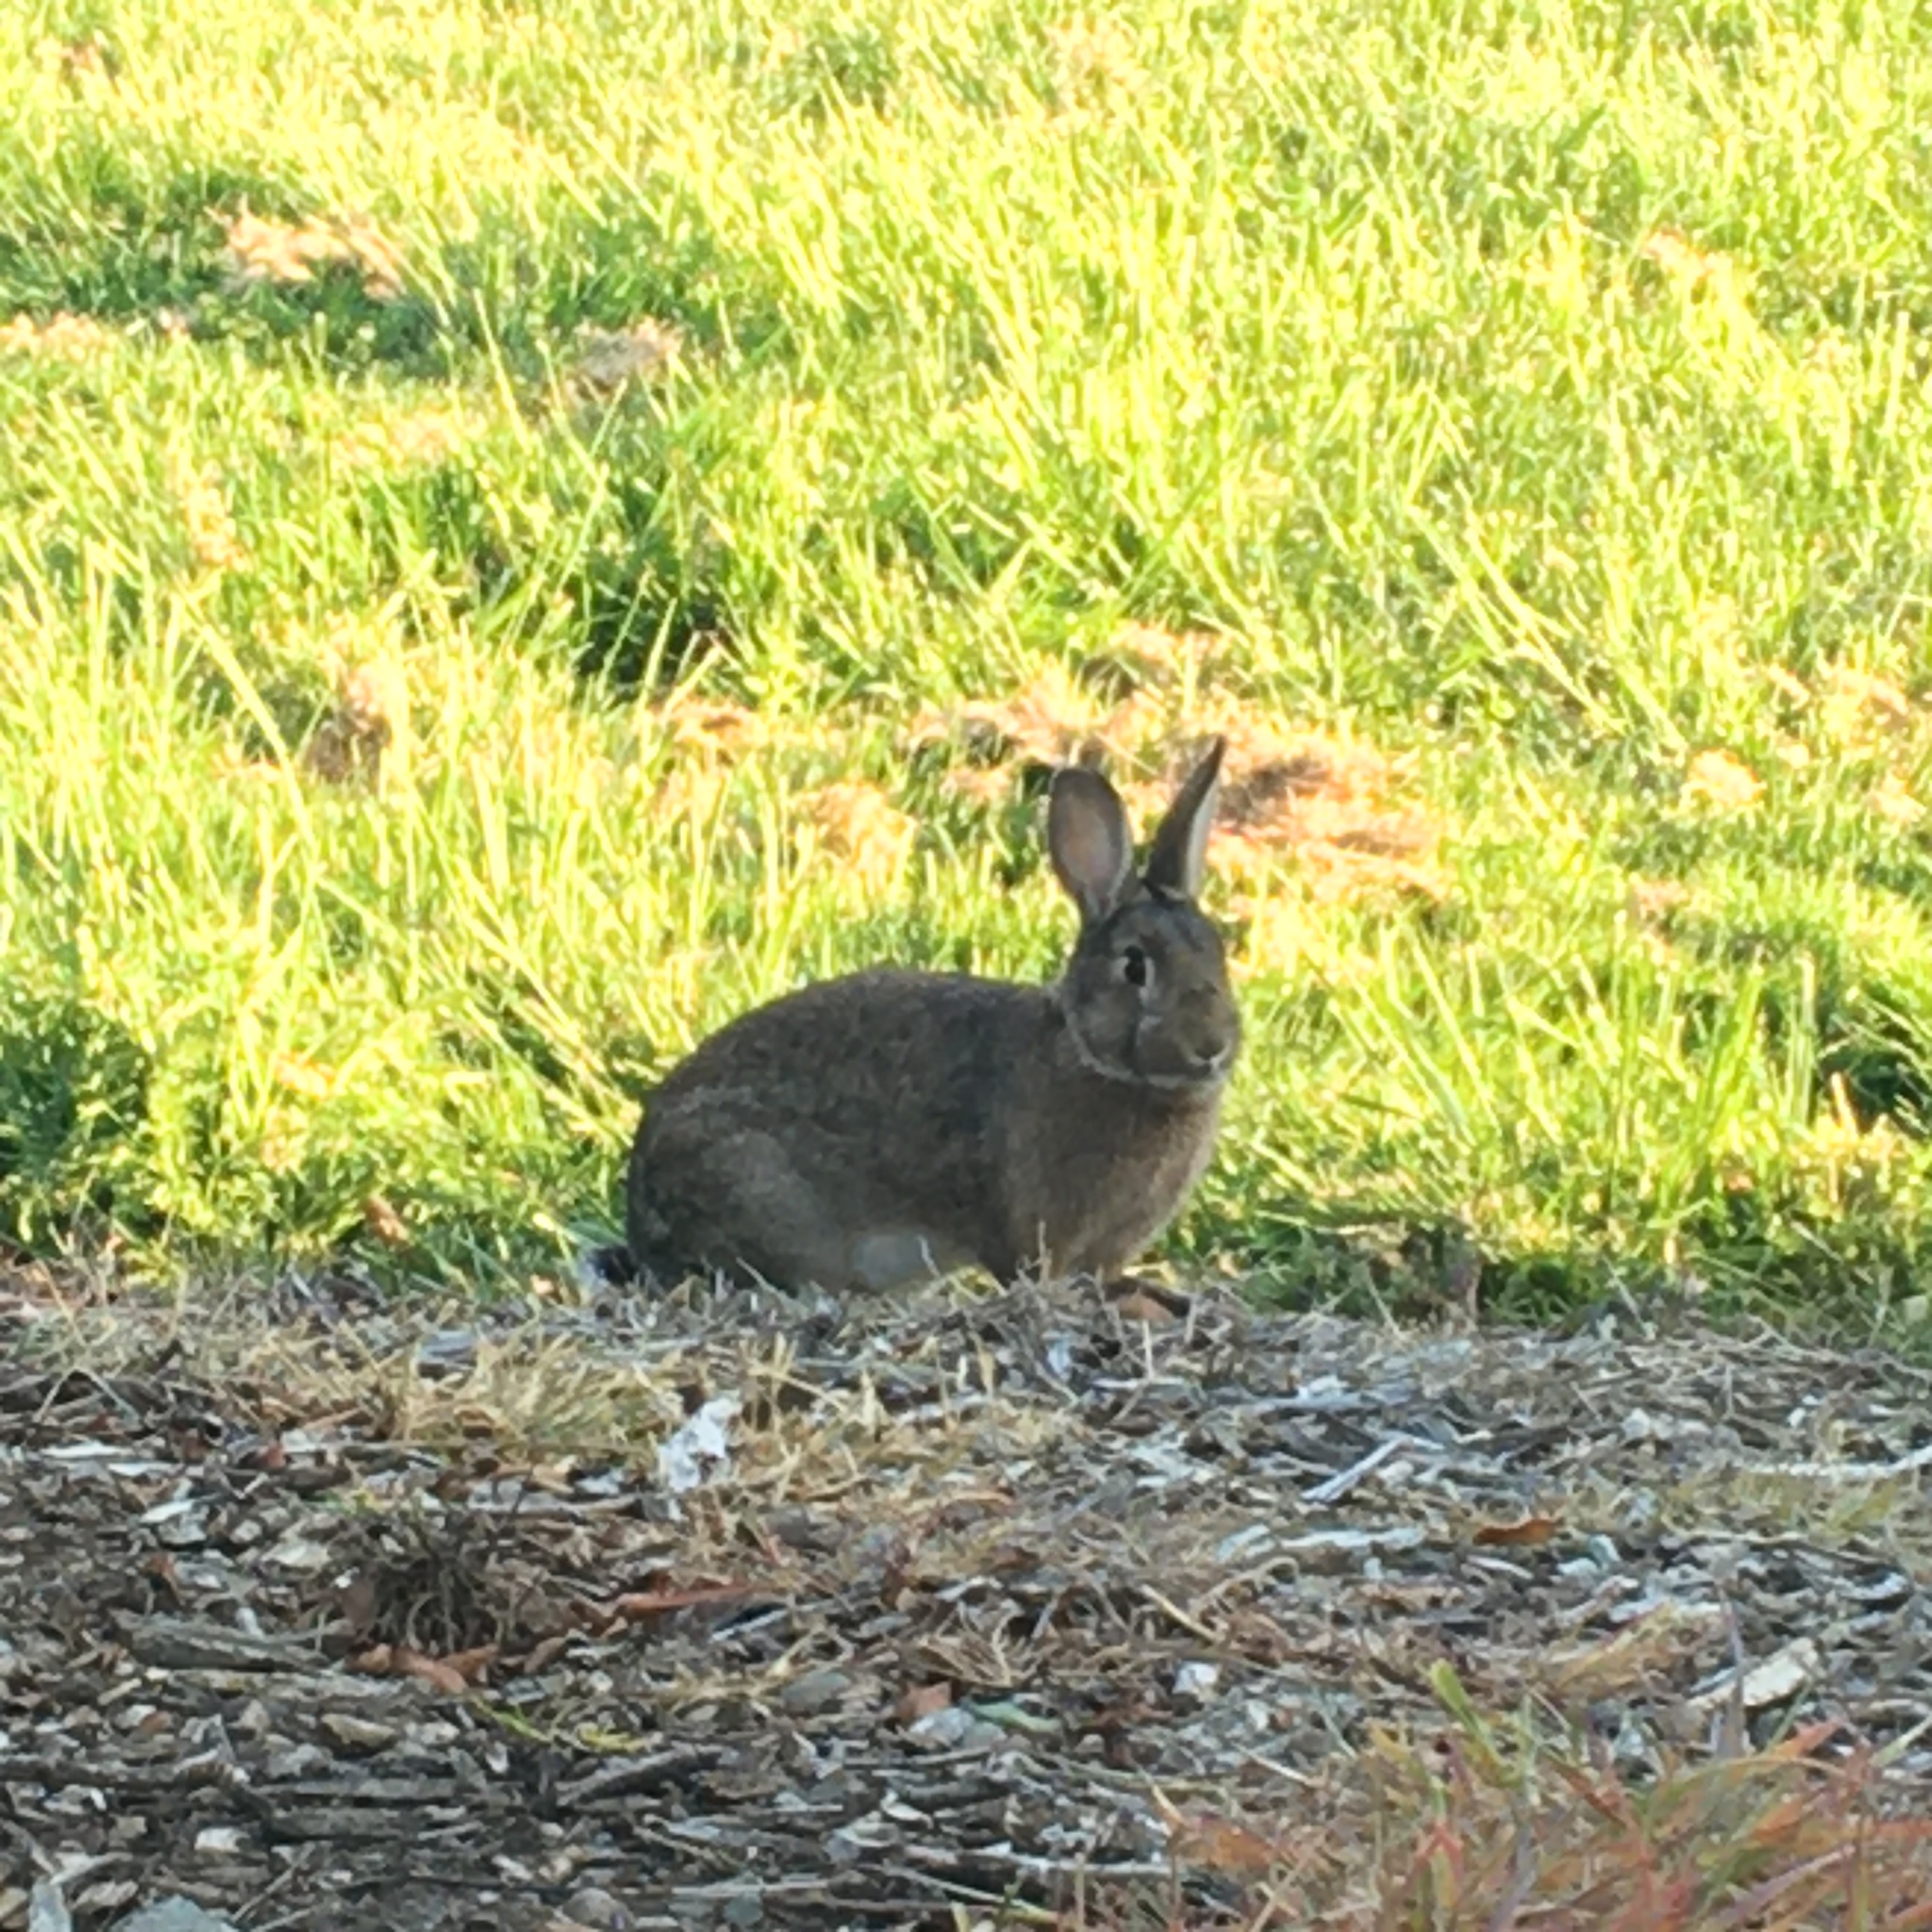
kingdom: Animalia
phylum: Chordata
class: Mammalia
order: Lagomorpha
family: Leporidae
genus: Sylvilagus
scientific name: Sylvilagus bachmani
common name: Brush rabbit
